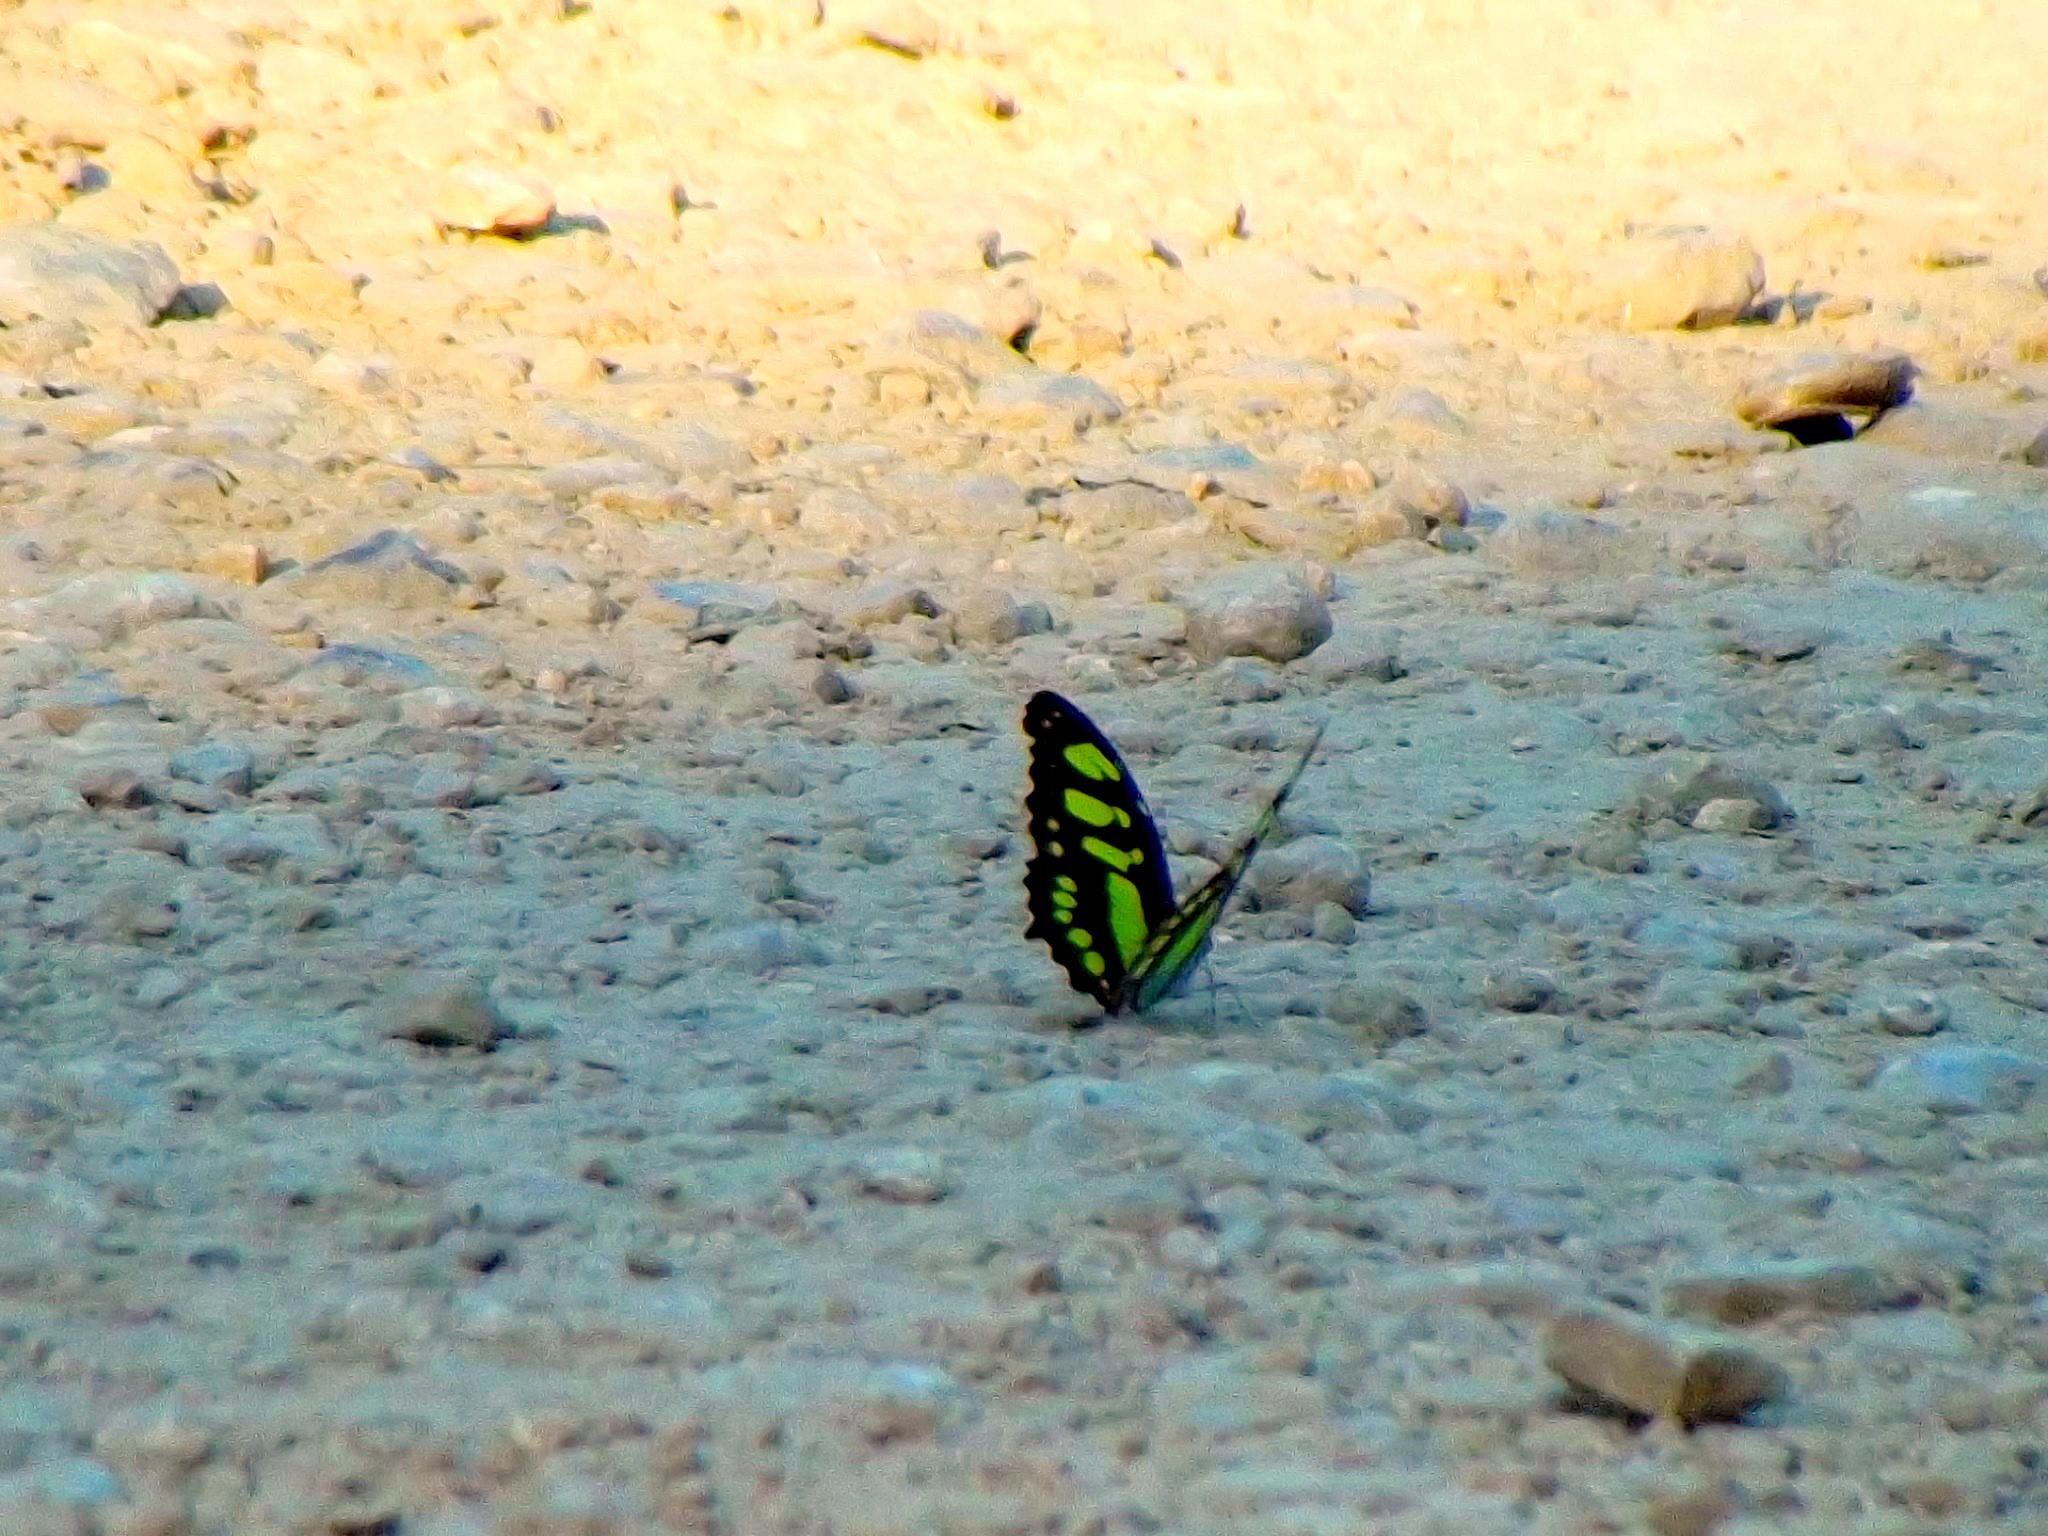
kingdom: Animalia
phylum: Arthropoda
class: Insecta
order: Lepidoptera
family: Nymphalidae
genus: Siproeta
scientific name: Siproeta stelenes
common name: Malachite
